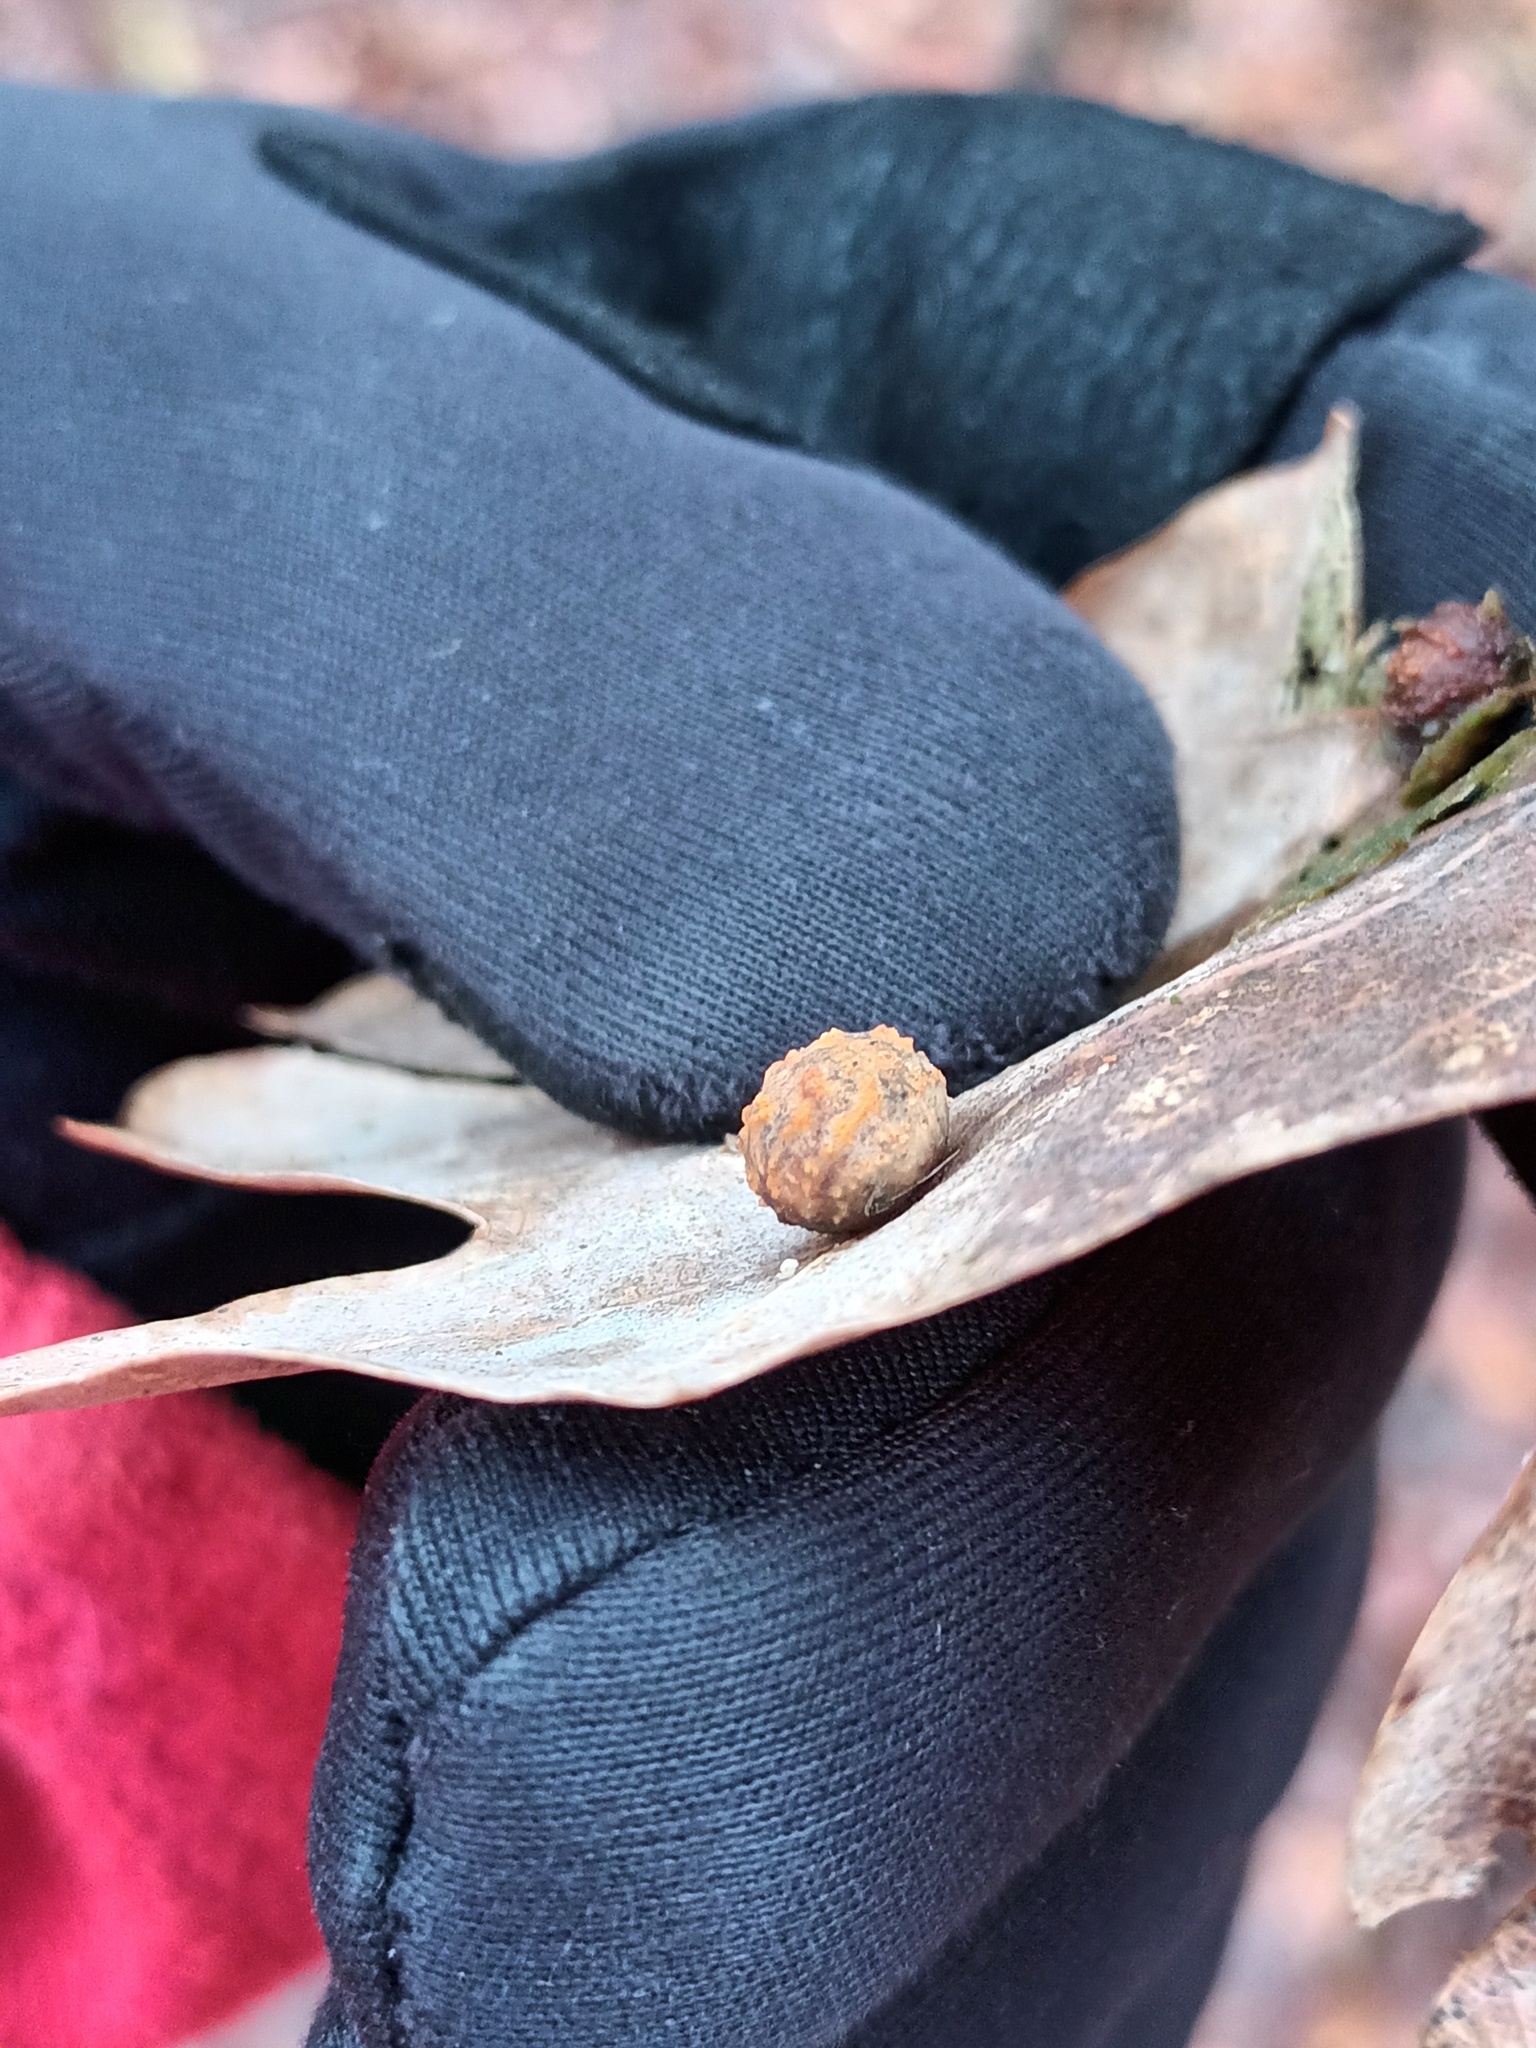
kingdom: Animalia
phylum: Arthropoda
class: Insecta
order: Hymenoptera
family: Cynipidae
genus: Cynips
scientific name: Cynips longiventris
